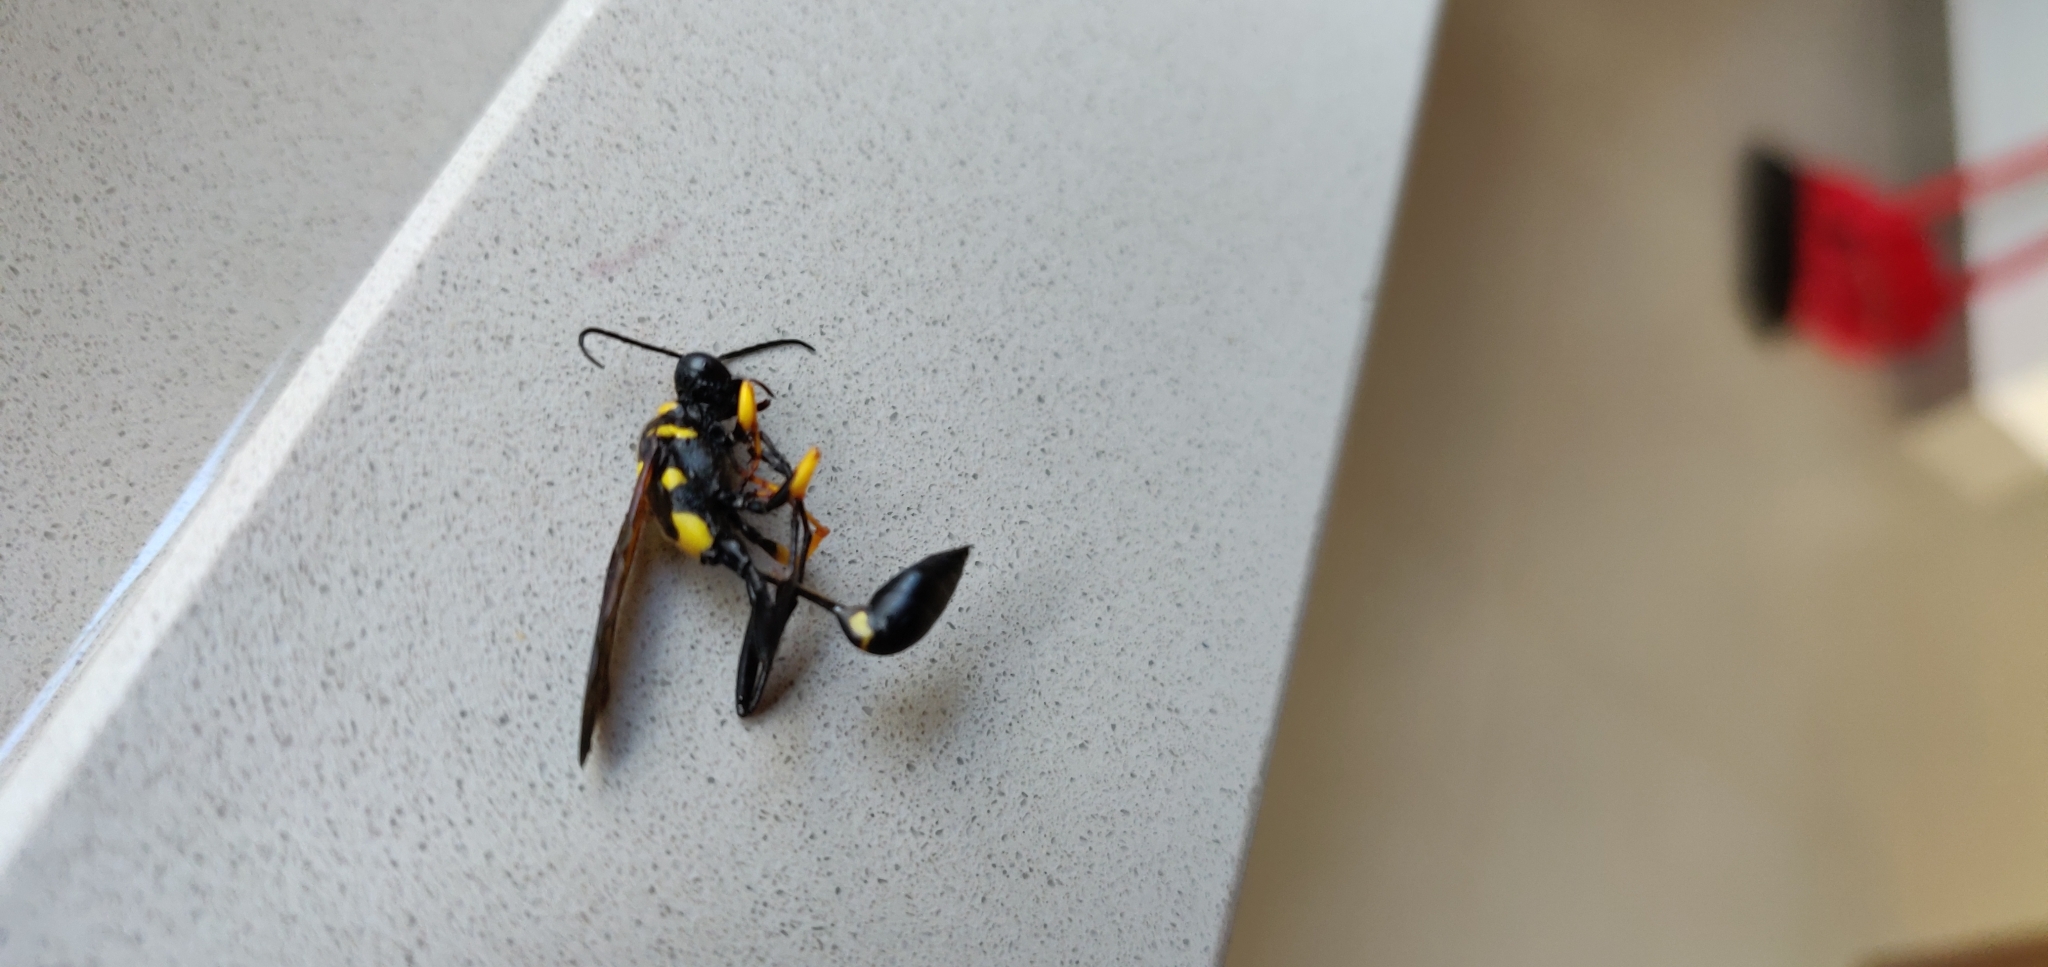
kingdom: Animalia
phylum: Arthropoda
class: Insecta
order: Hymenoptera
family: Sphecidae
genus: Sceliphron
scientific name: Sceliphron asiaticum
